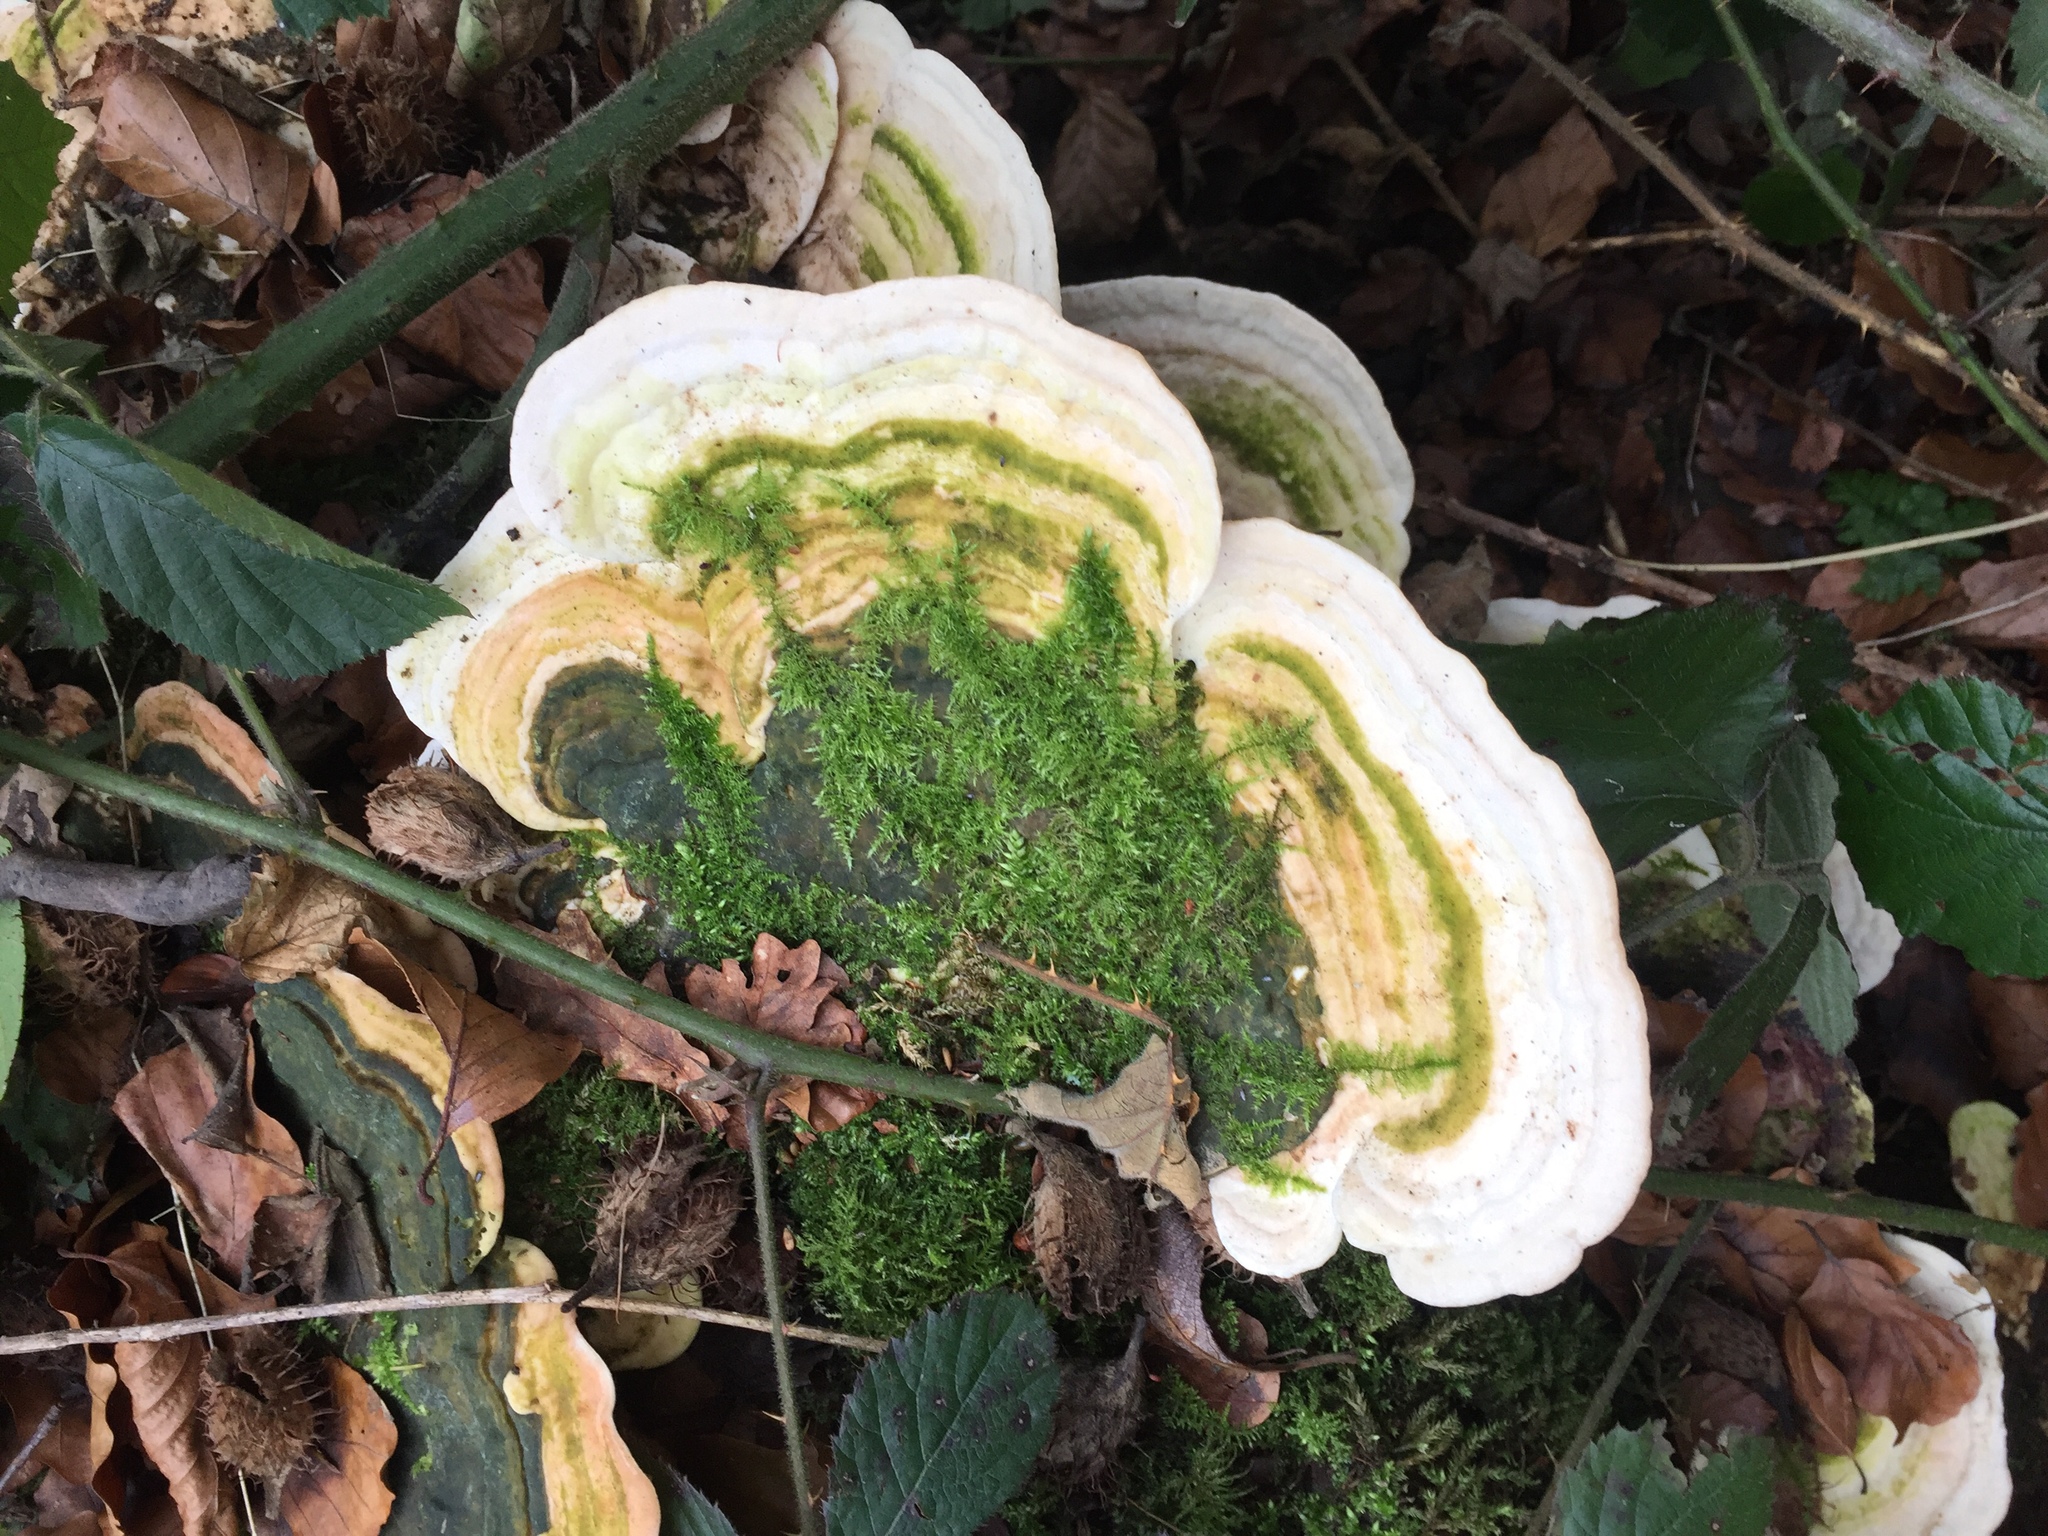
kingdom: Fungi
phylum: Basidiomycota
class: Agaricomycetes
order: Polyporales
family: Polyporaceae
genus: Trametes
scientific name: Trametes gibbosa
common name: Lumpy bracket
